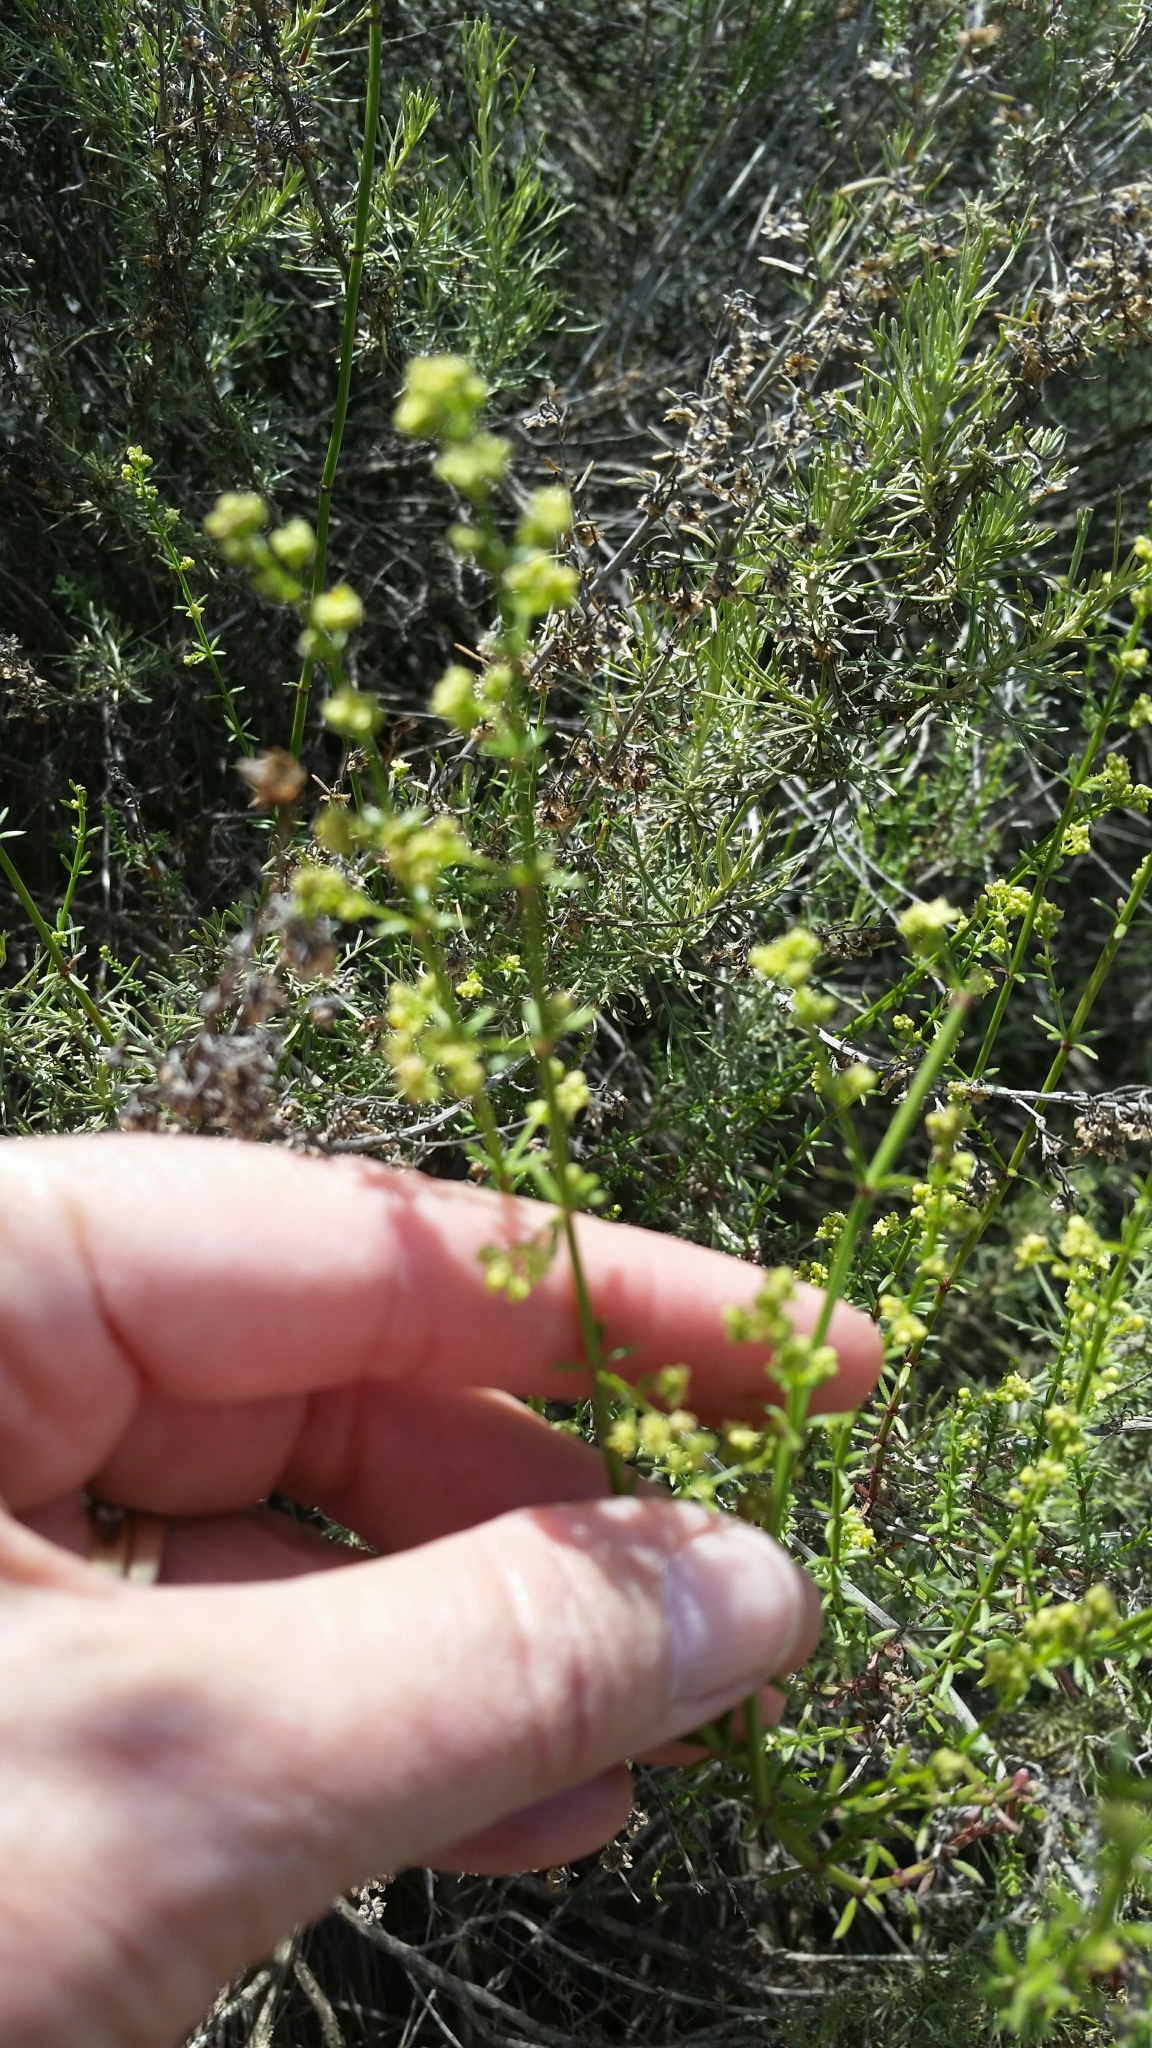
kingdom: Plantae
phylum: Tracheophyta
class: Magnoliopsida
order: Gentianales
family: Rubiaceae
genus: Galium
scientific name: Galium angustifolium
